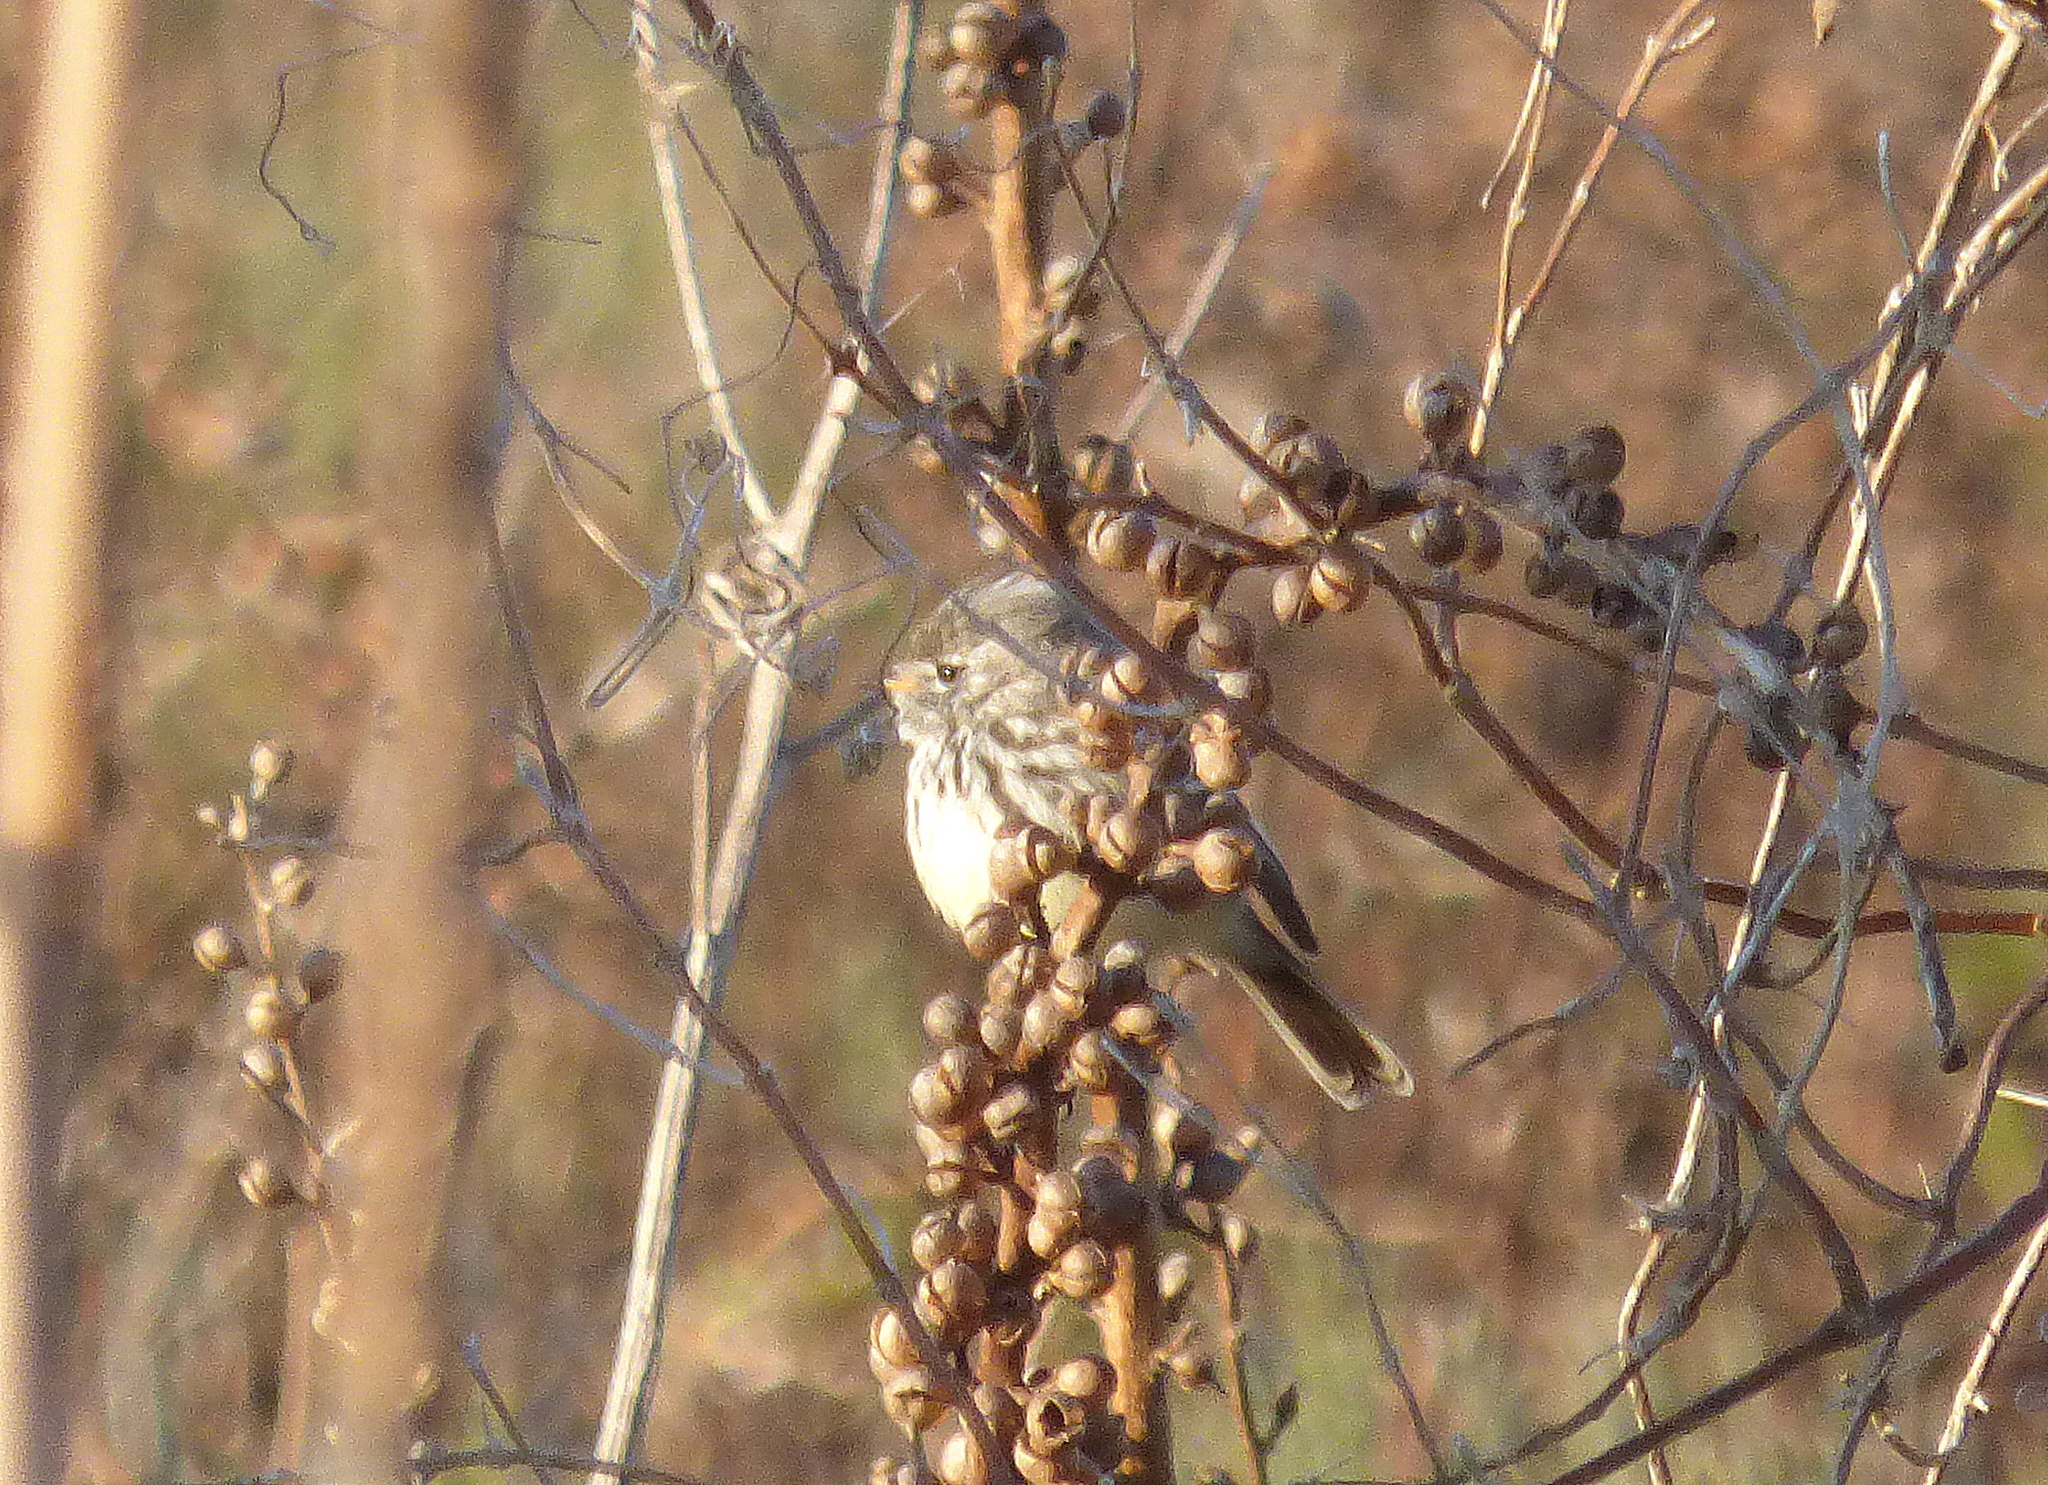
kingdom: Animalia
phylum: Chordata
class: Aves
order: Passeriformes
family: Tyrannidae
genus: Anairetes
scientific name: Anairetes flavirostris
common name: Yellow-billed tit-tyrant
